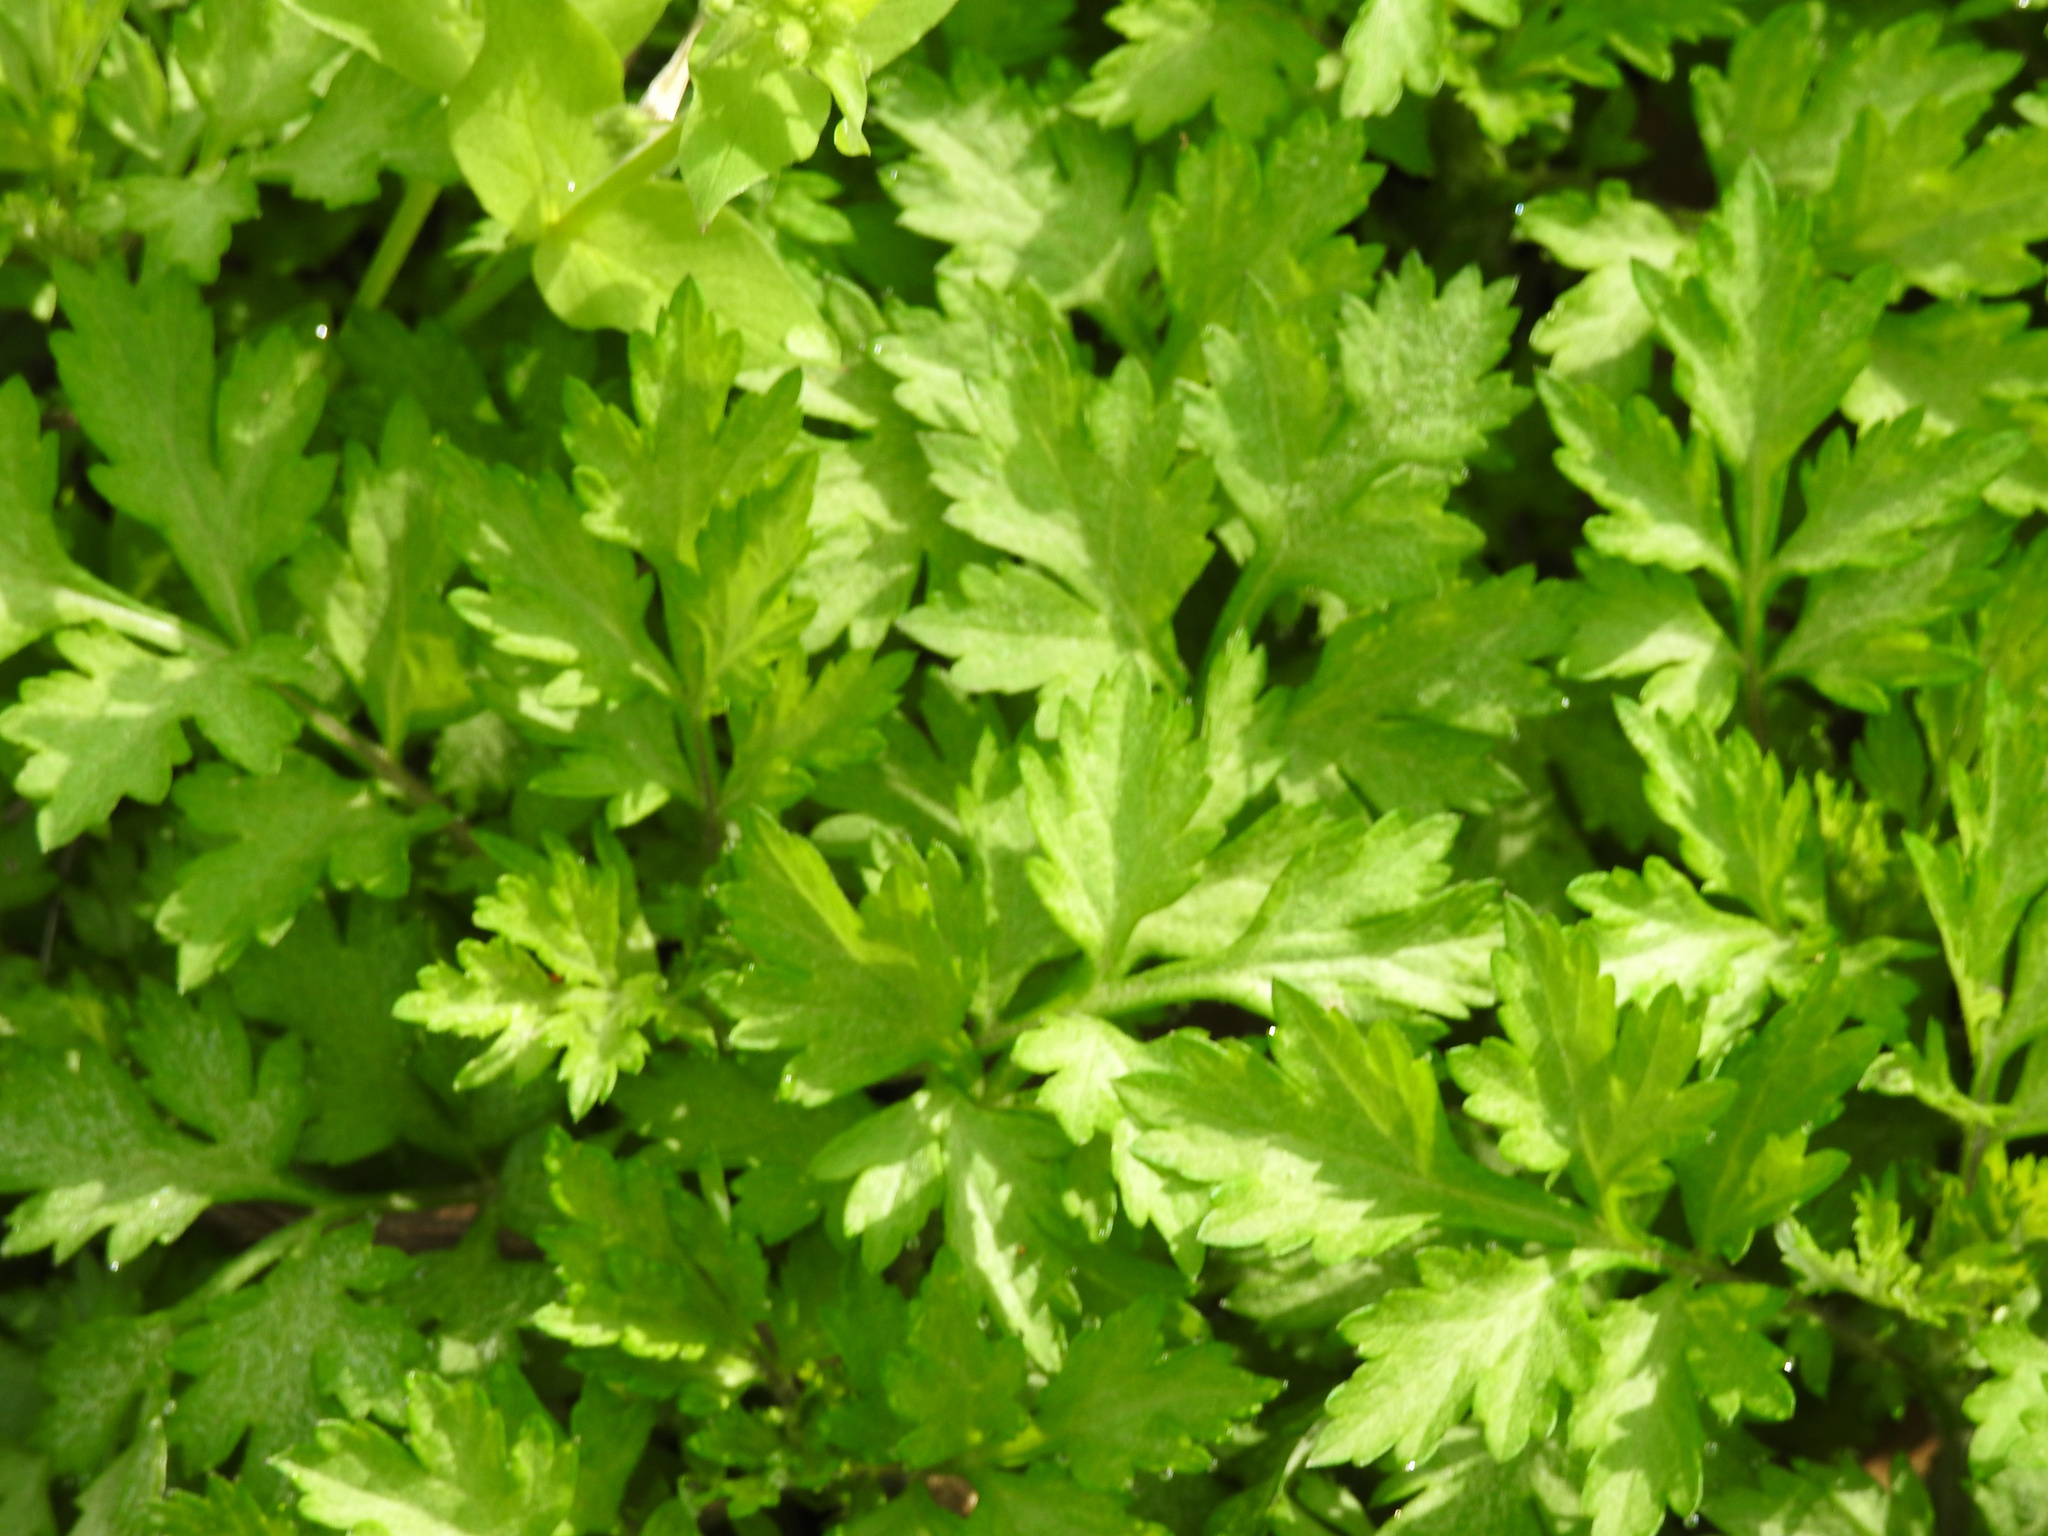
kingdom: Plantae
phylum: Tracheophyta
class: Magnoliopsida
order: Asterales
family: Asteraceae
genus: Artemisia
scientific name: Artemisia vulgaris
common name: Mugwort
